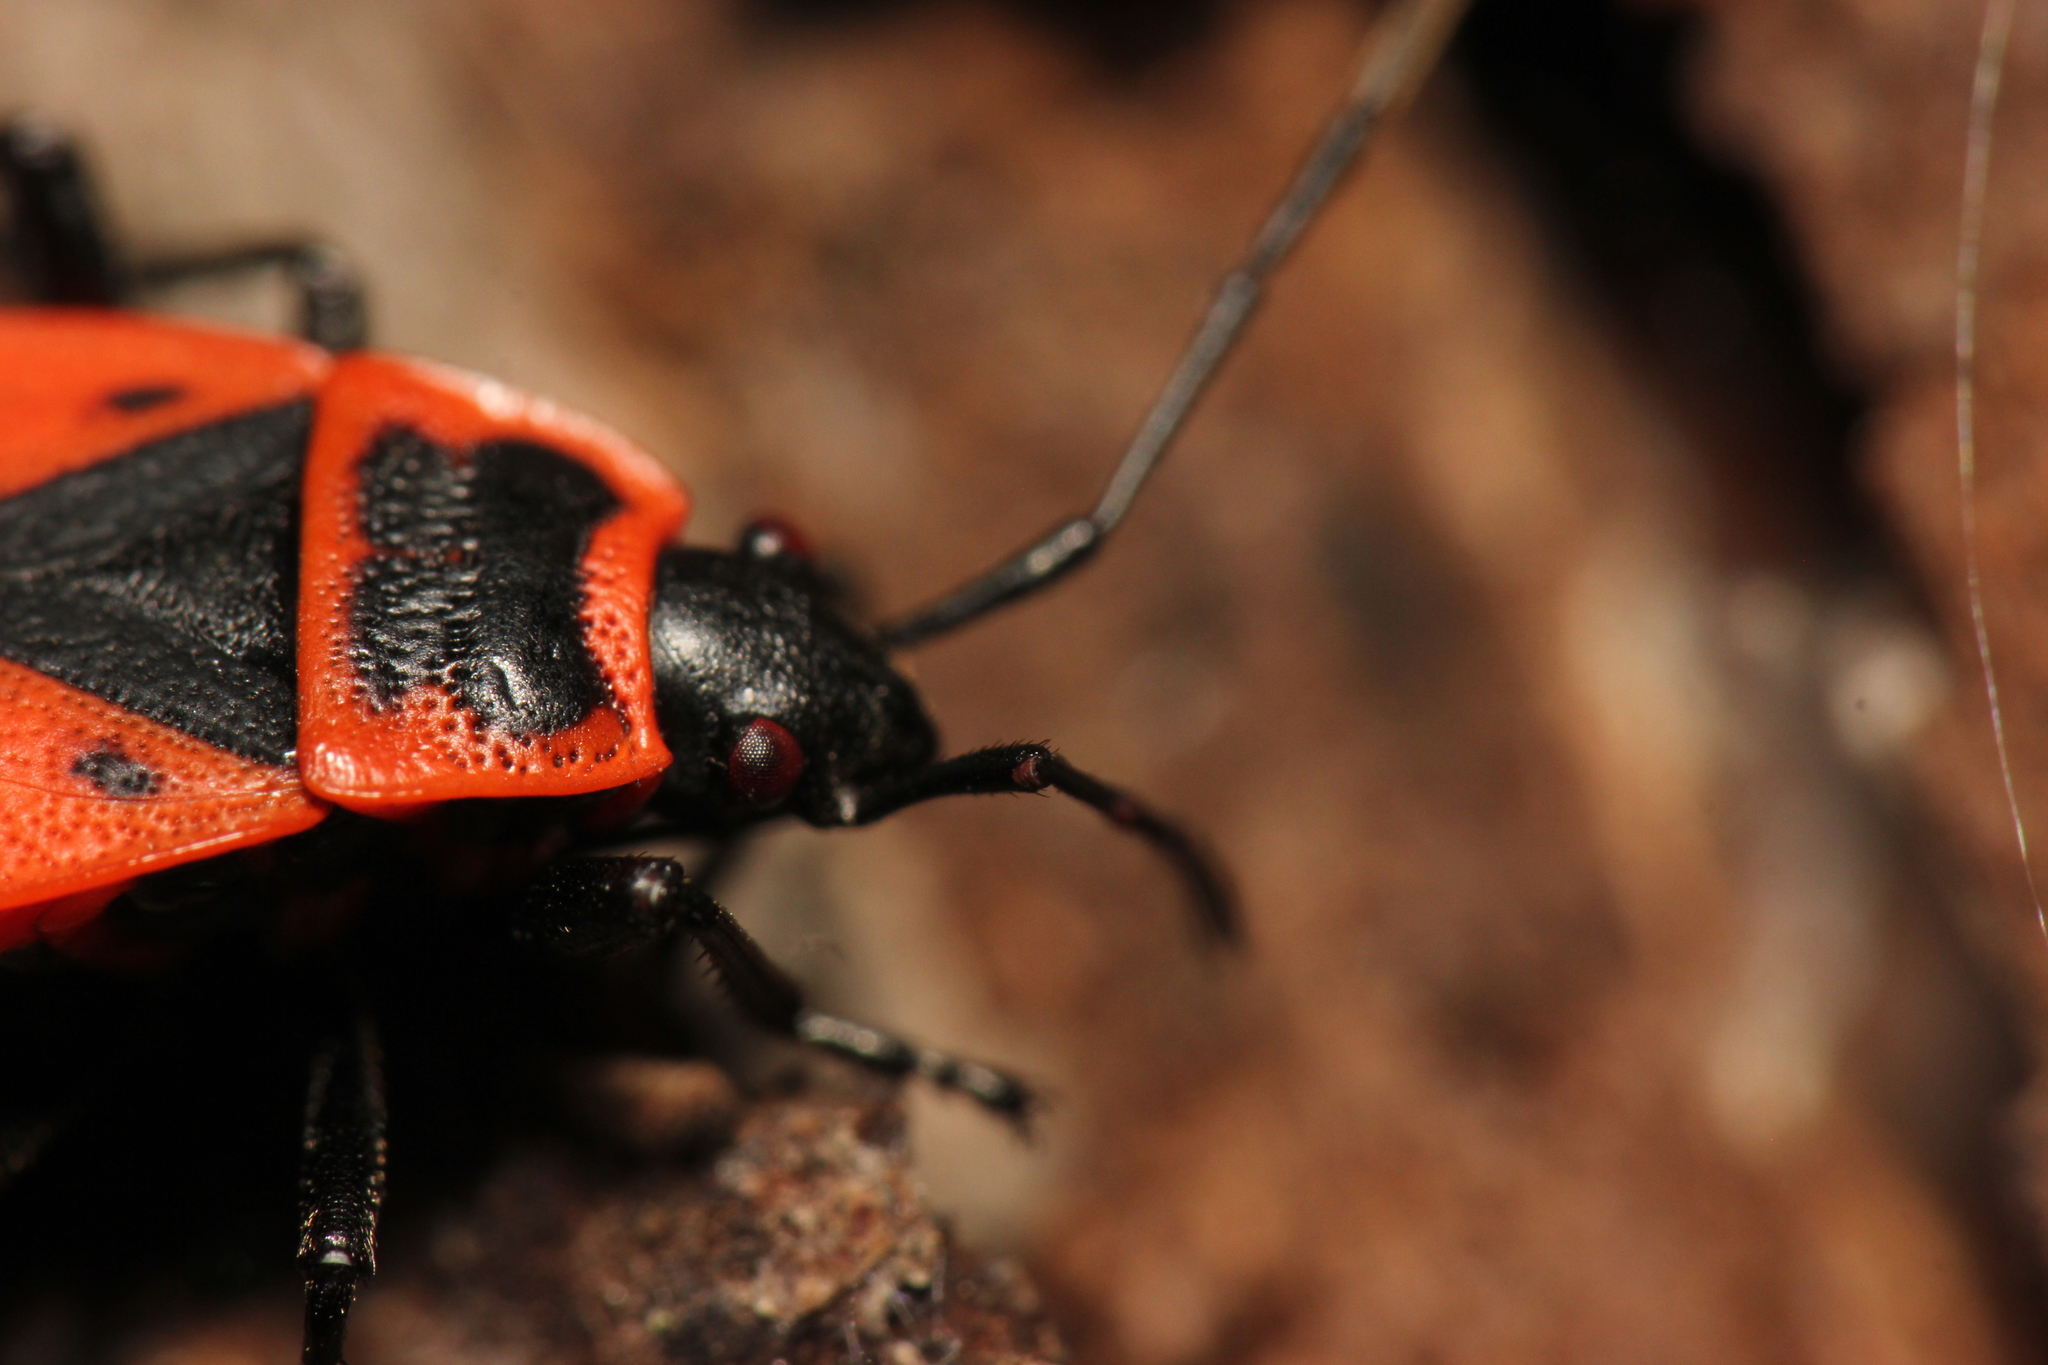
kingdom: Animalia
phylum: Arthropoda
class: Insecta
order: Hemiptera
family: Pyrrhocoridae
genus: Pyrrhocoris
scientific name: Pyrrhocoris apterus
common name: Firebug
